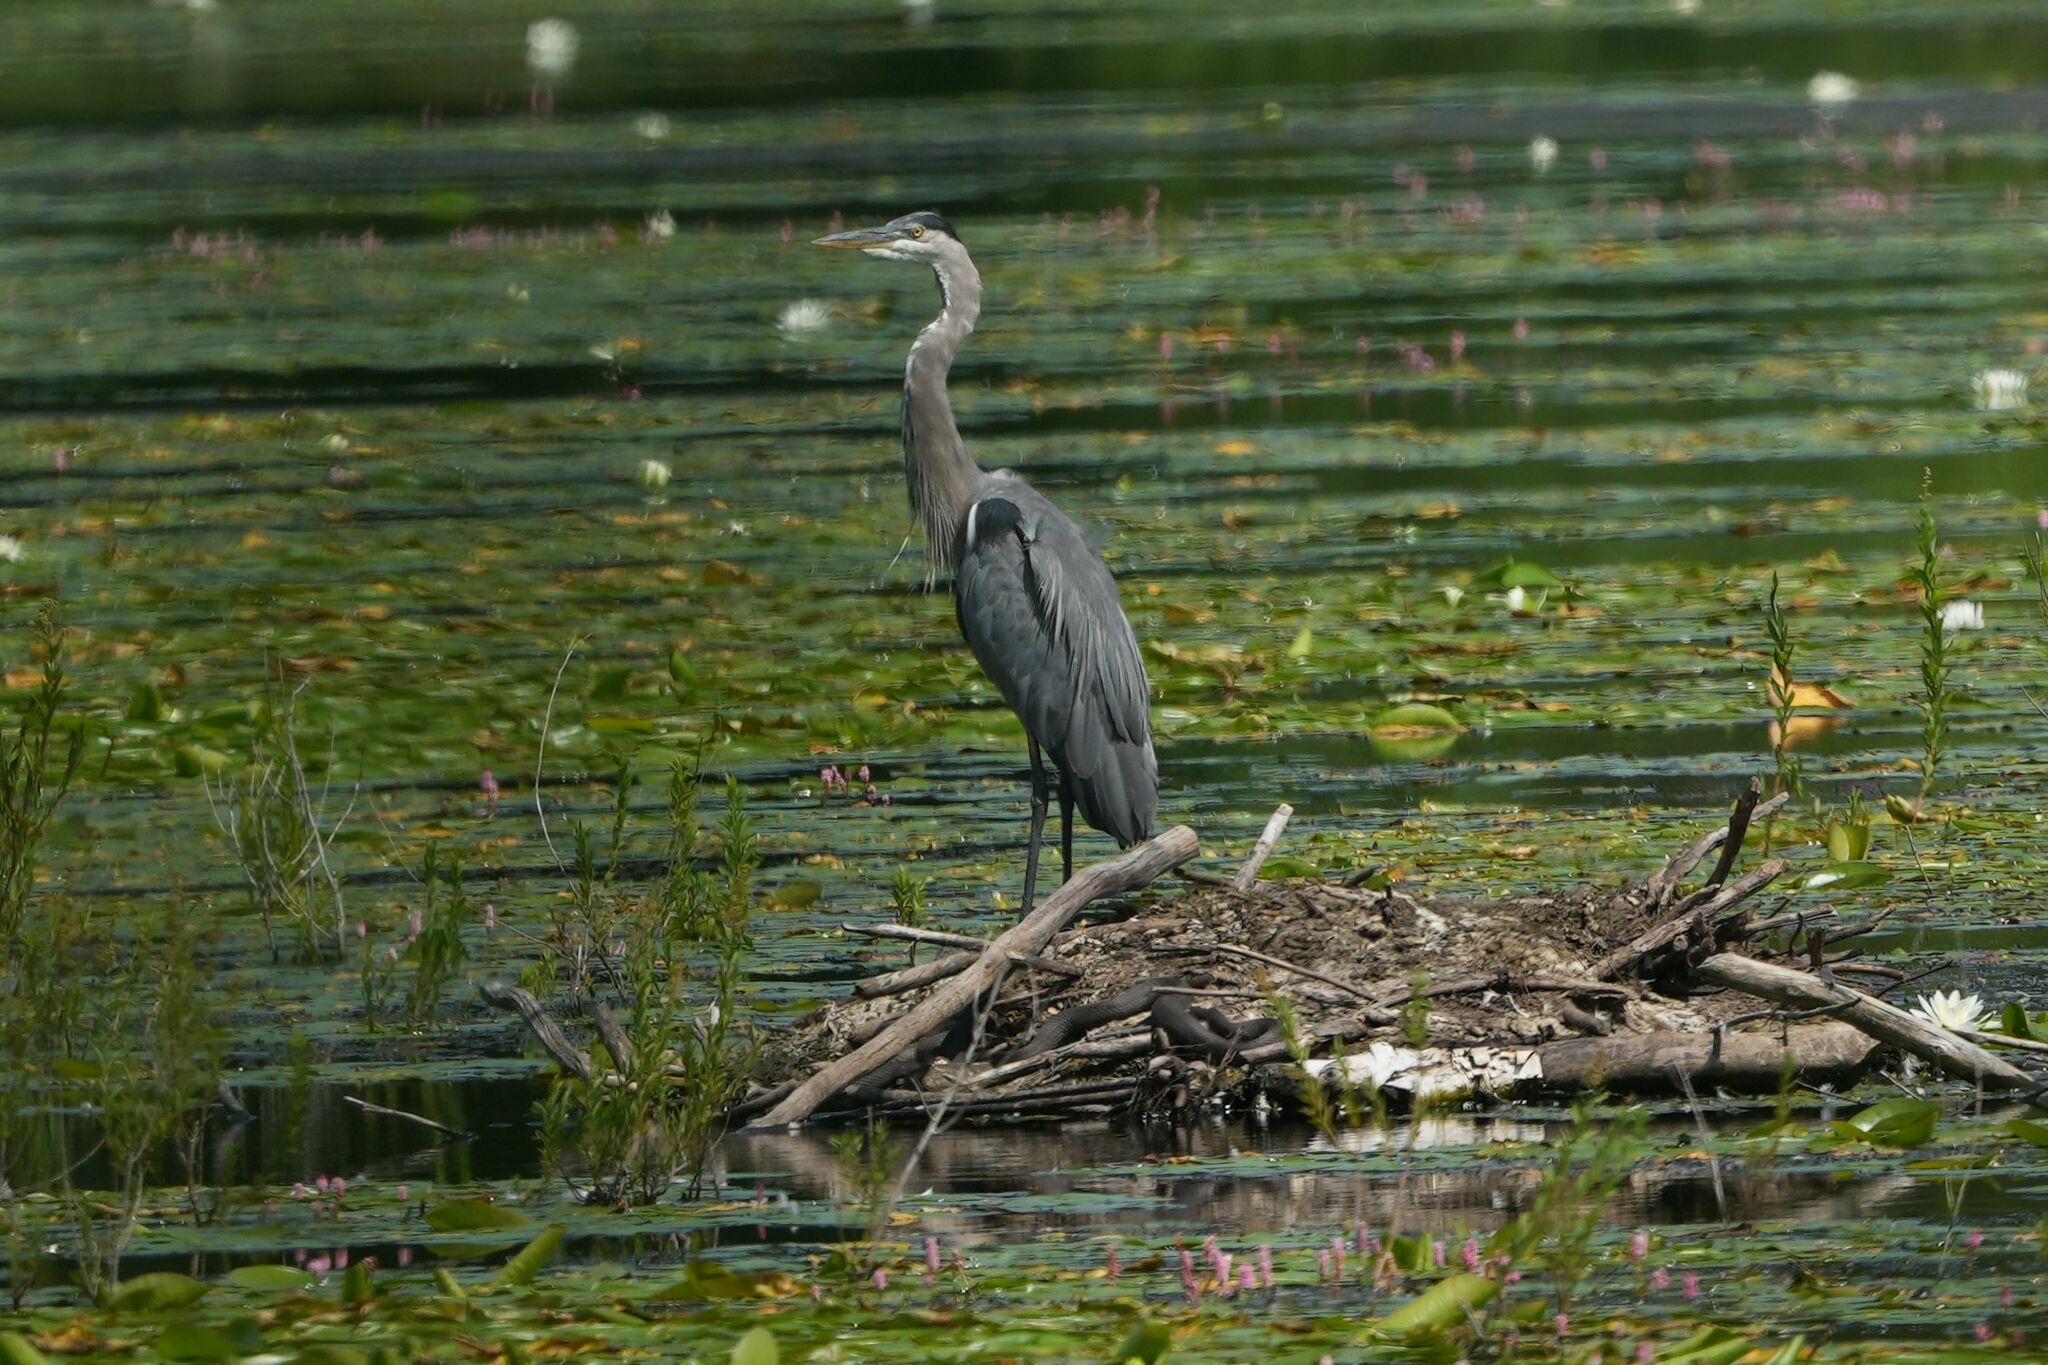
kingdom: Animalia
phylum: Chordata
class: Aves
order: Pelecaniformes
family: Ardeidae
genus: Ardea
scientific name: Ardea herodias
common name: Great blue heron
